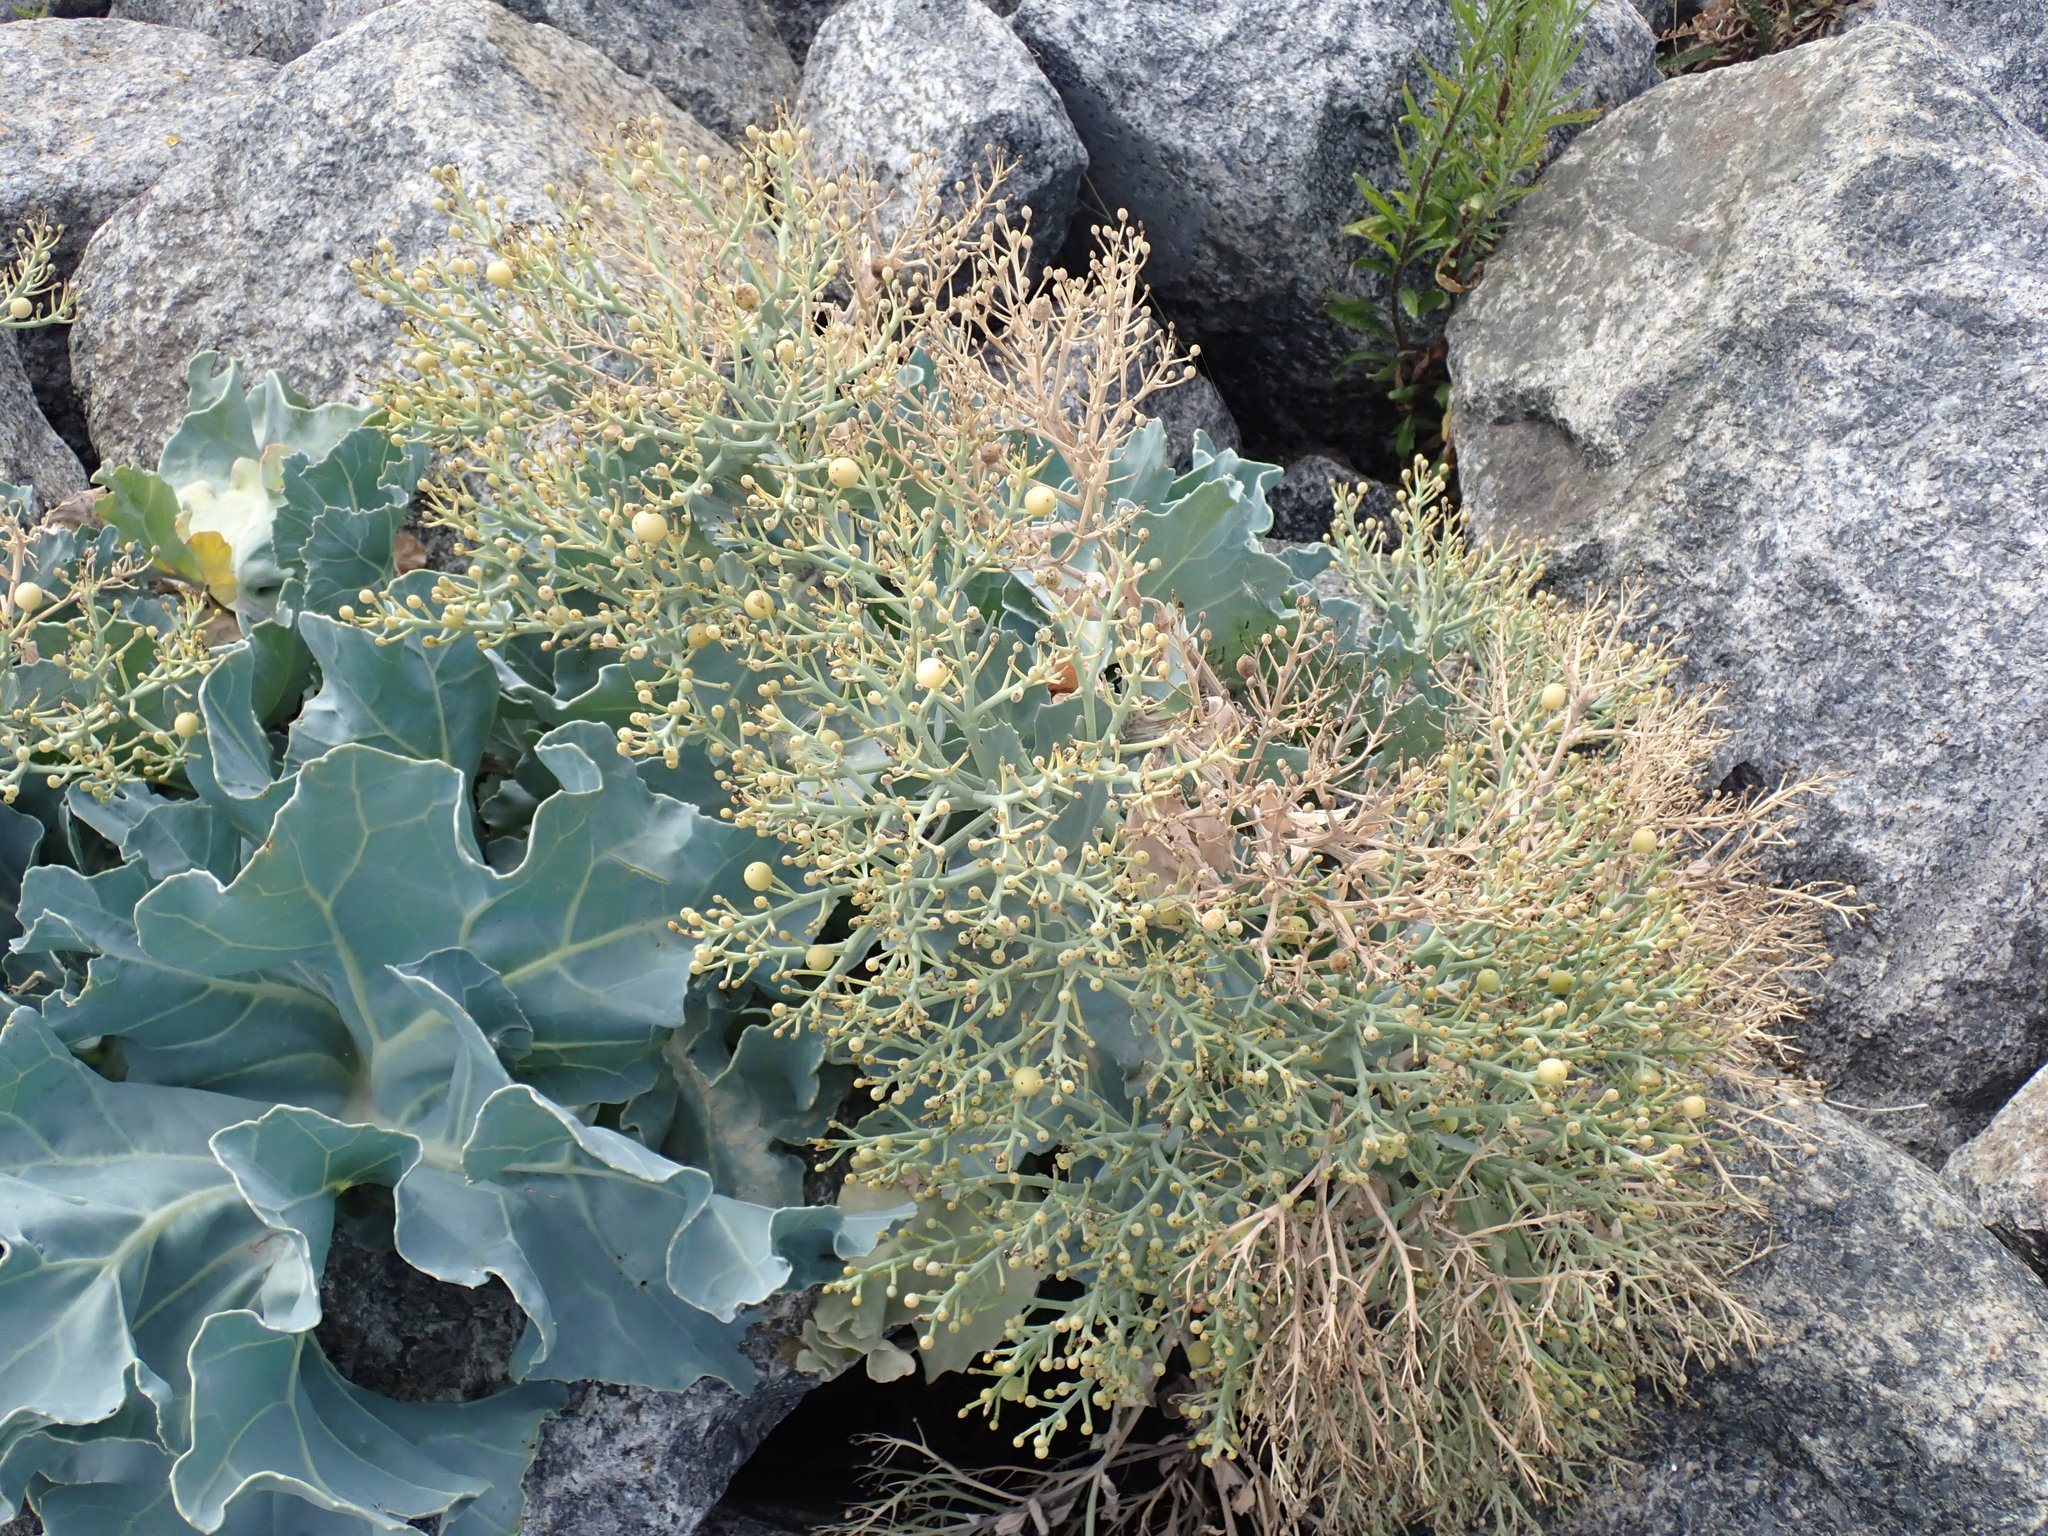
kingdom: Plantae
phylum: Tracheophyta
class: Magnoliopsida
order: Brassicales
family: Brassicaceae
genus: Crambe
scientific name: Crambe maritima
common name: Sea-kale
